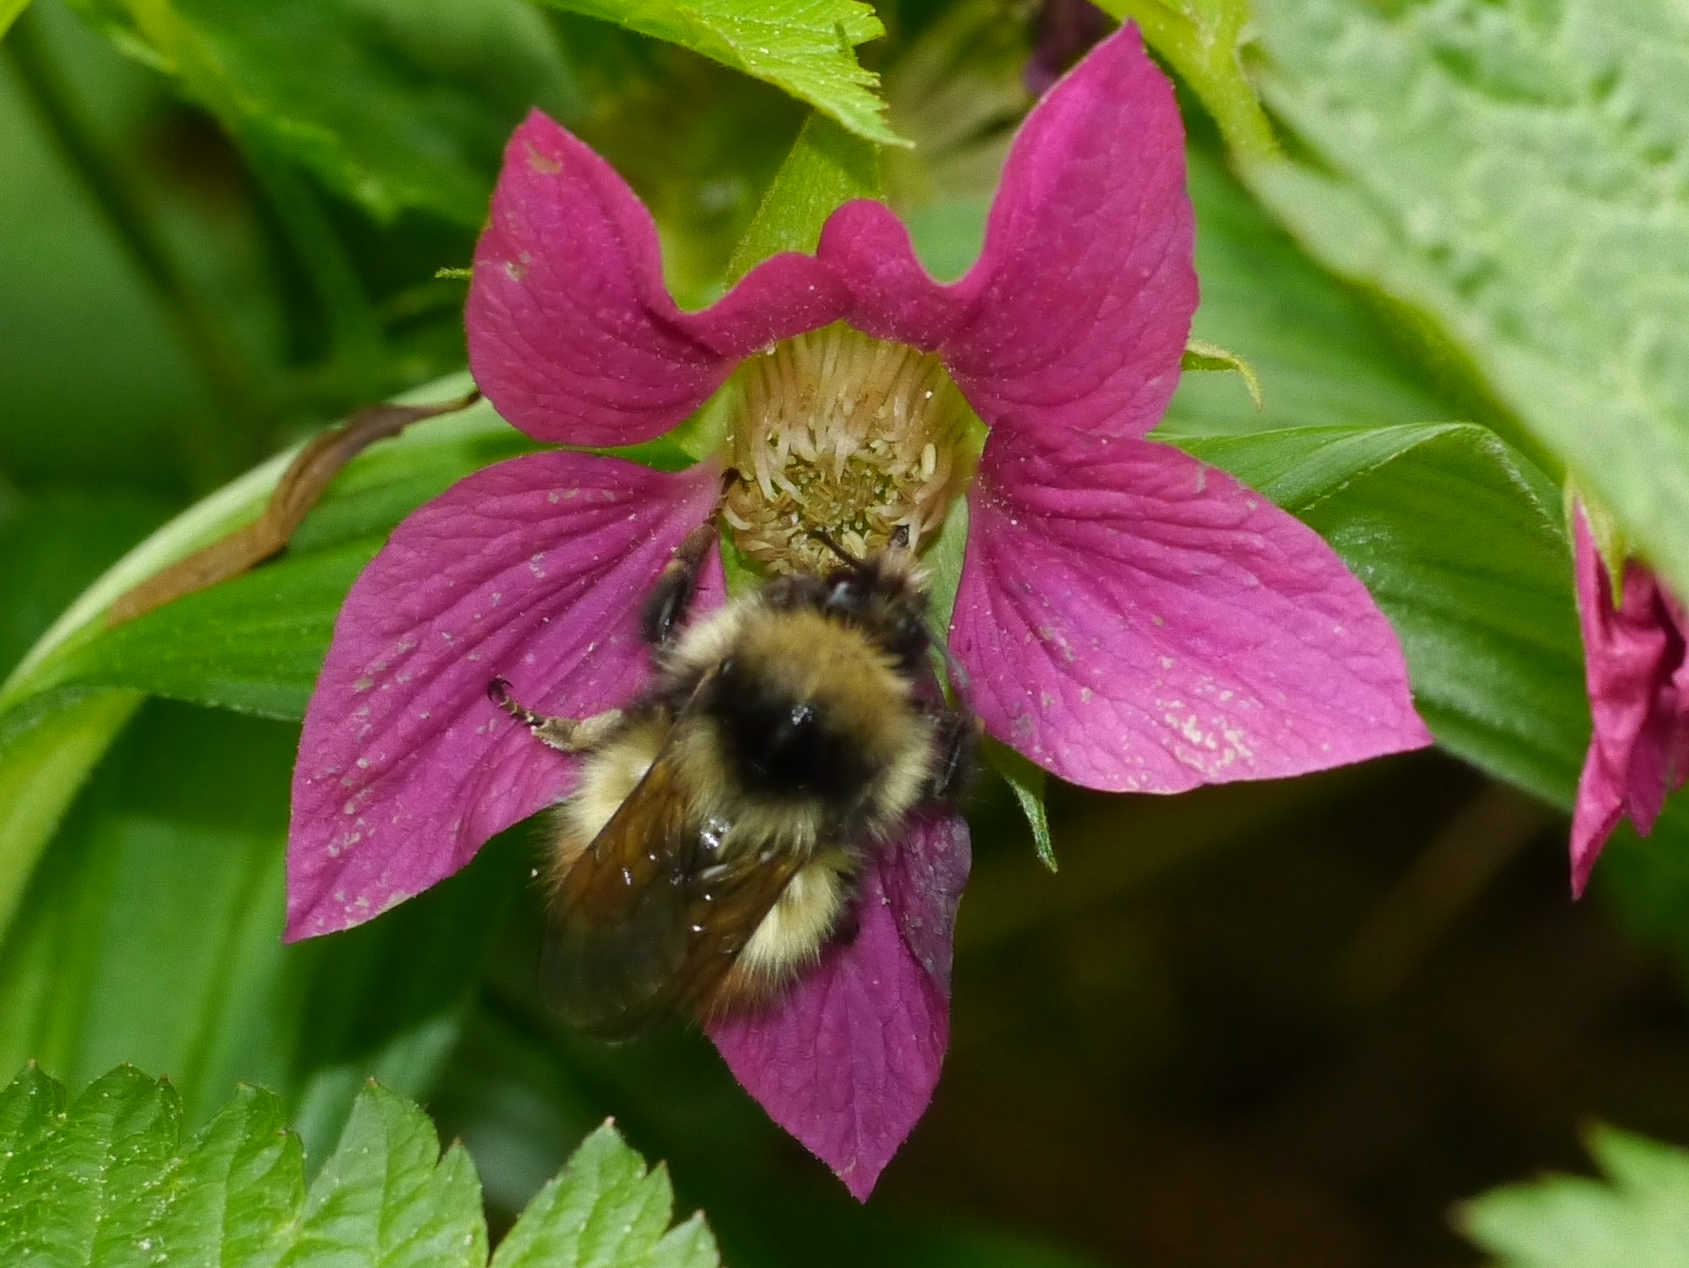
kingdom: Animalia
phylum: Arthropoda
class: Insecta
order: Hymenoptera
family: Apidae
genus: Bombus
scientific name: Bombus flavifrons
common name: Yellow head bumble bee
